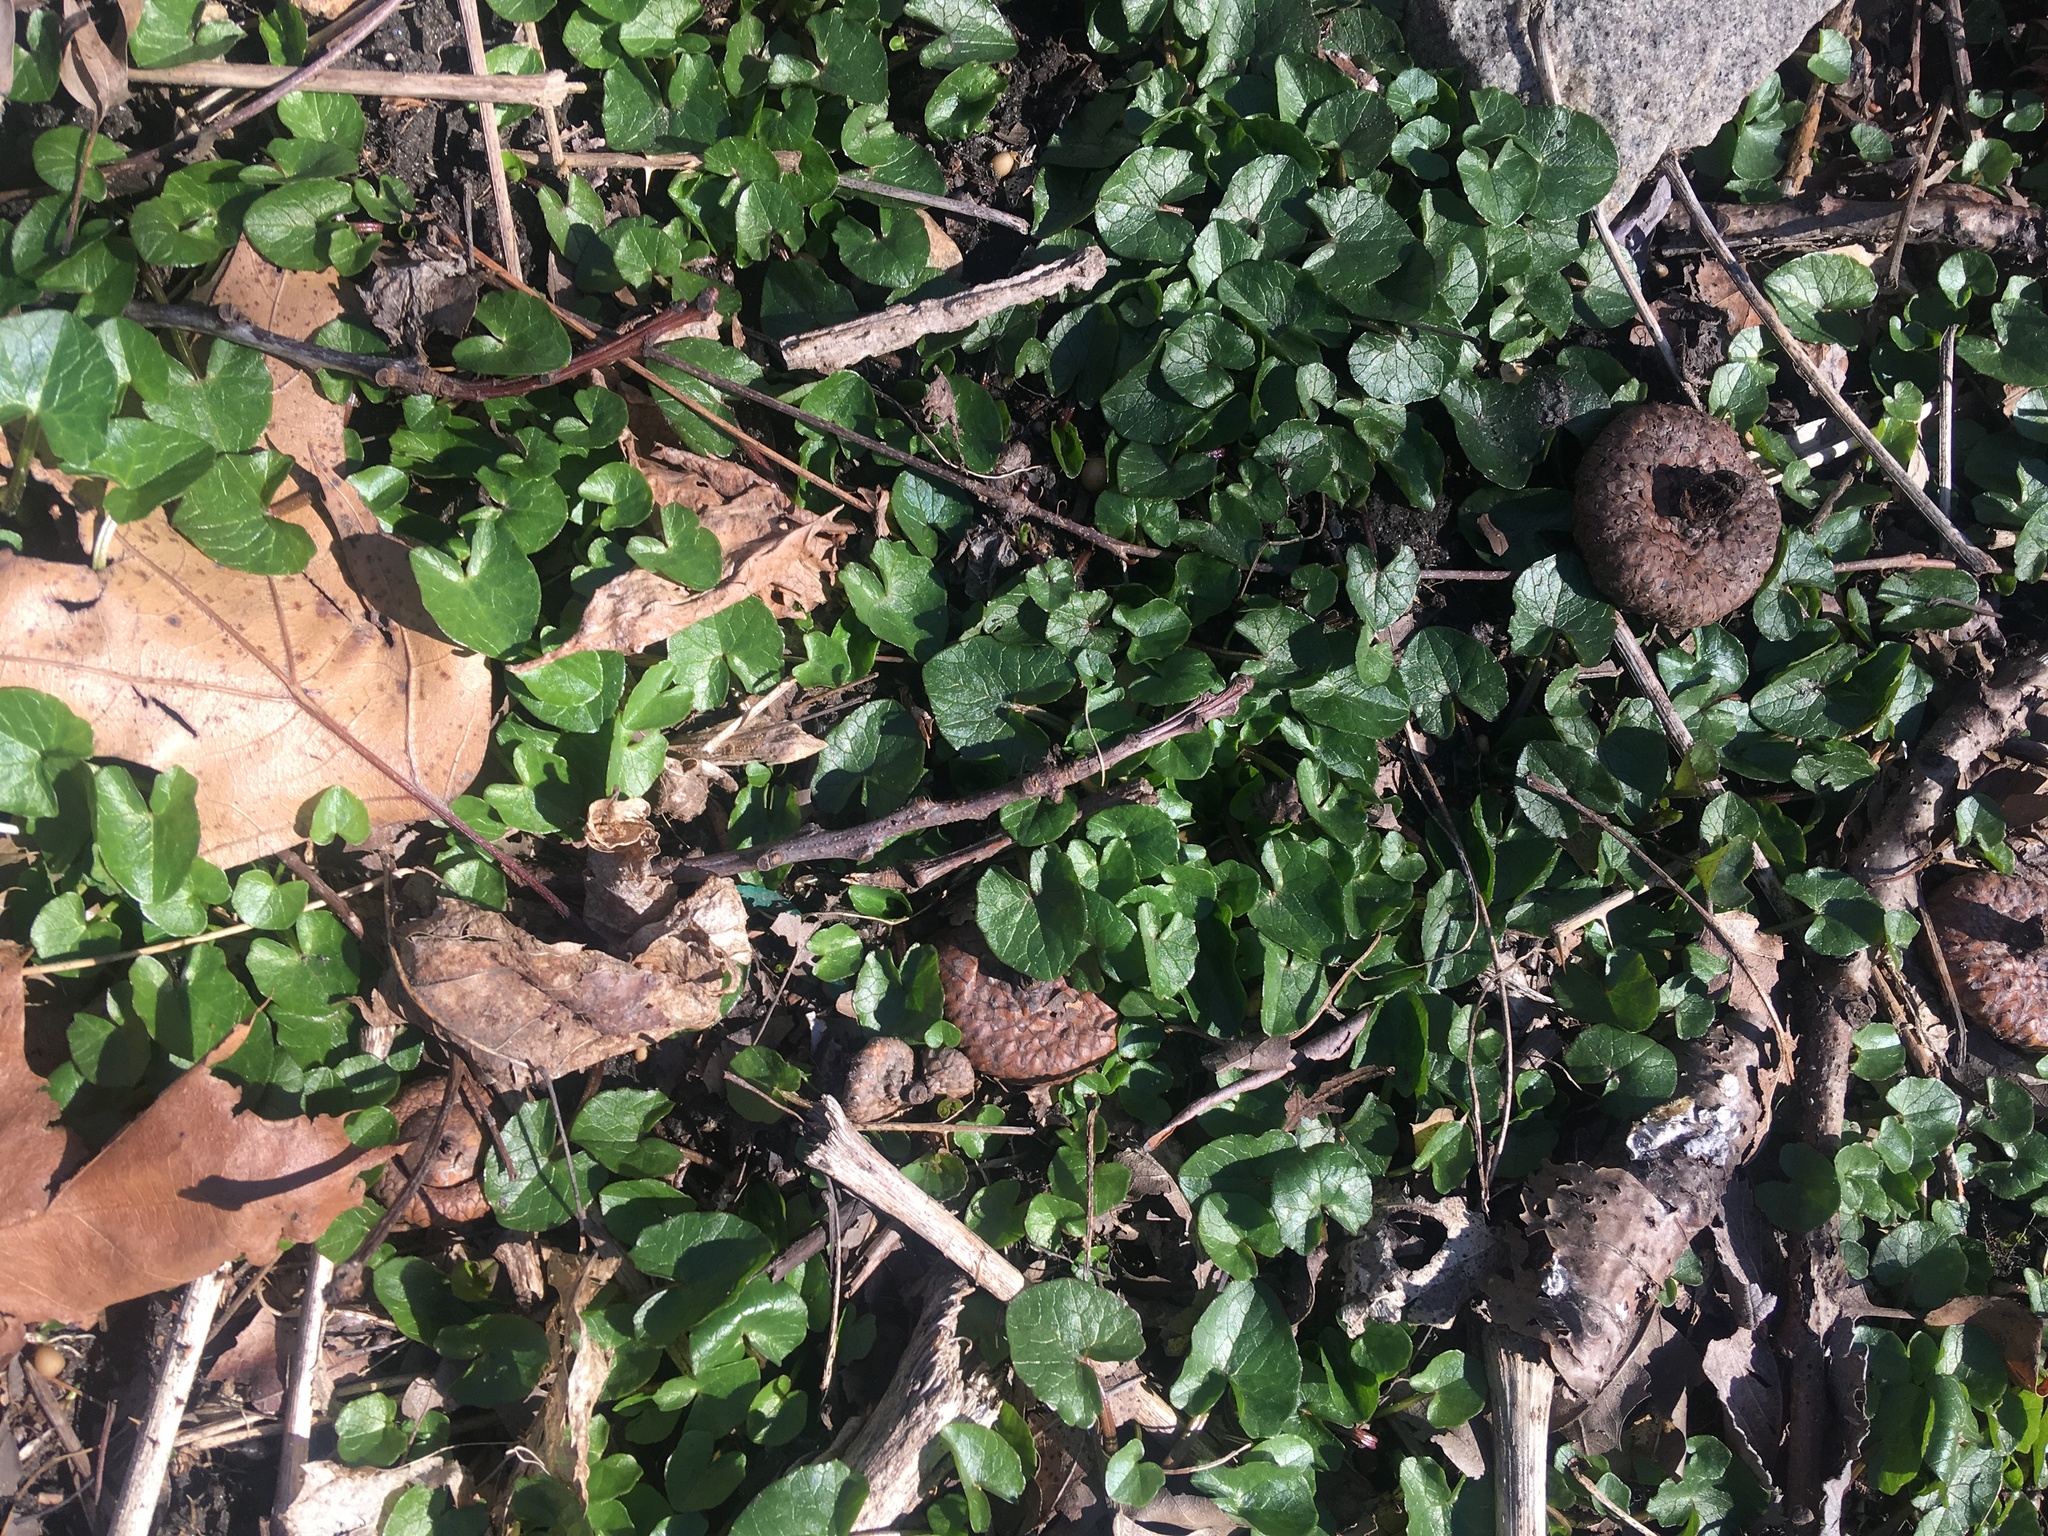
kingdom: Plantae
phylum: Tracheophyta
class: Magnoliopsida
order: Ranunculales
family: Ranunculaceae
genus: Ficaria
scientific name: Ficaria verna
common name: Lesser celandine
